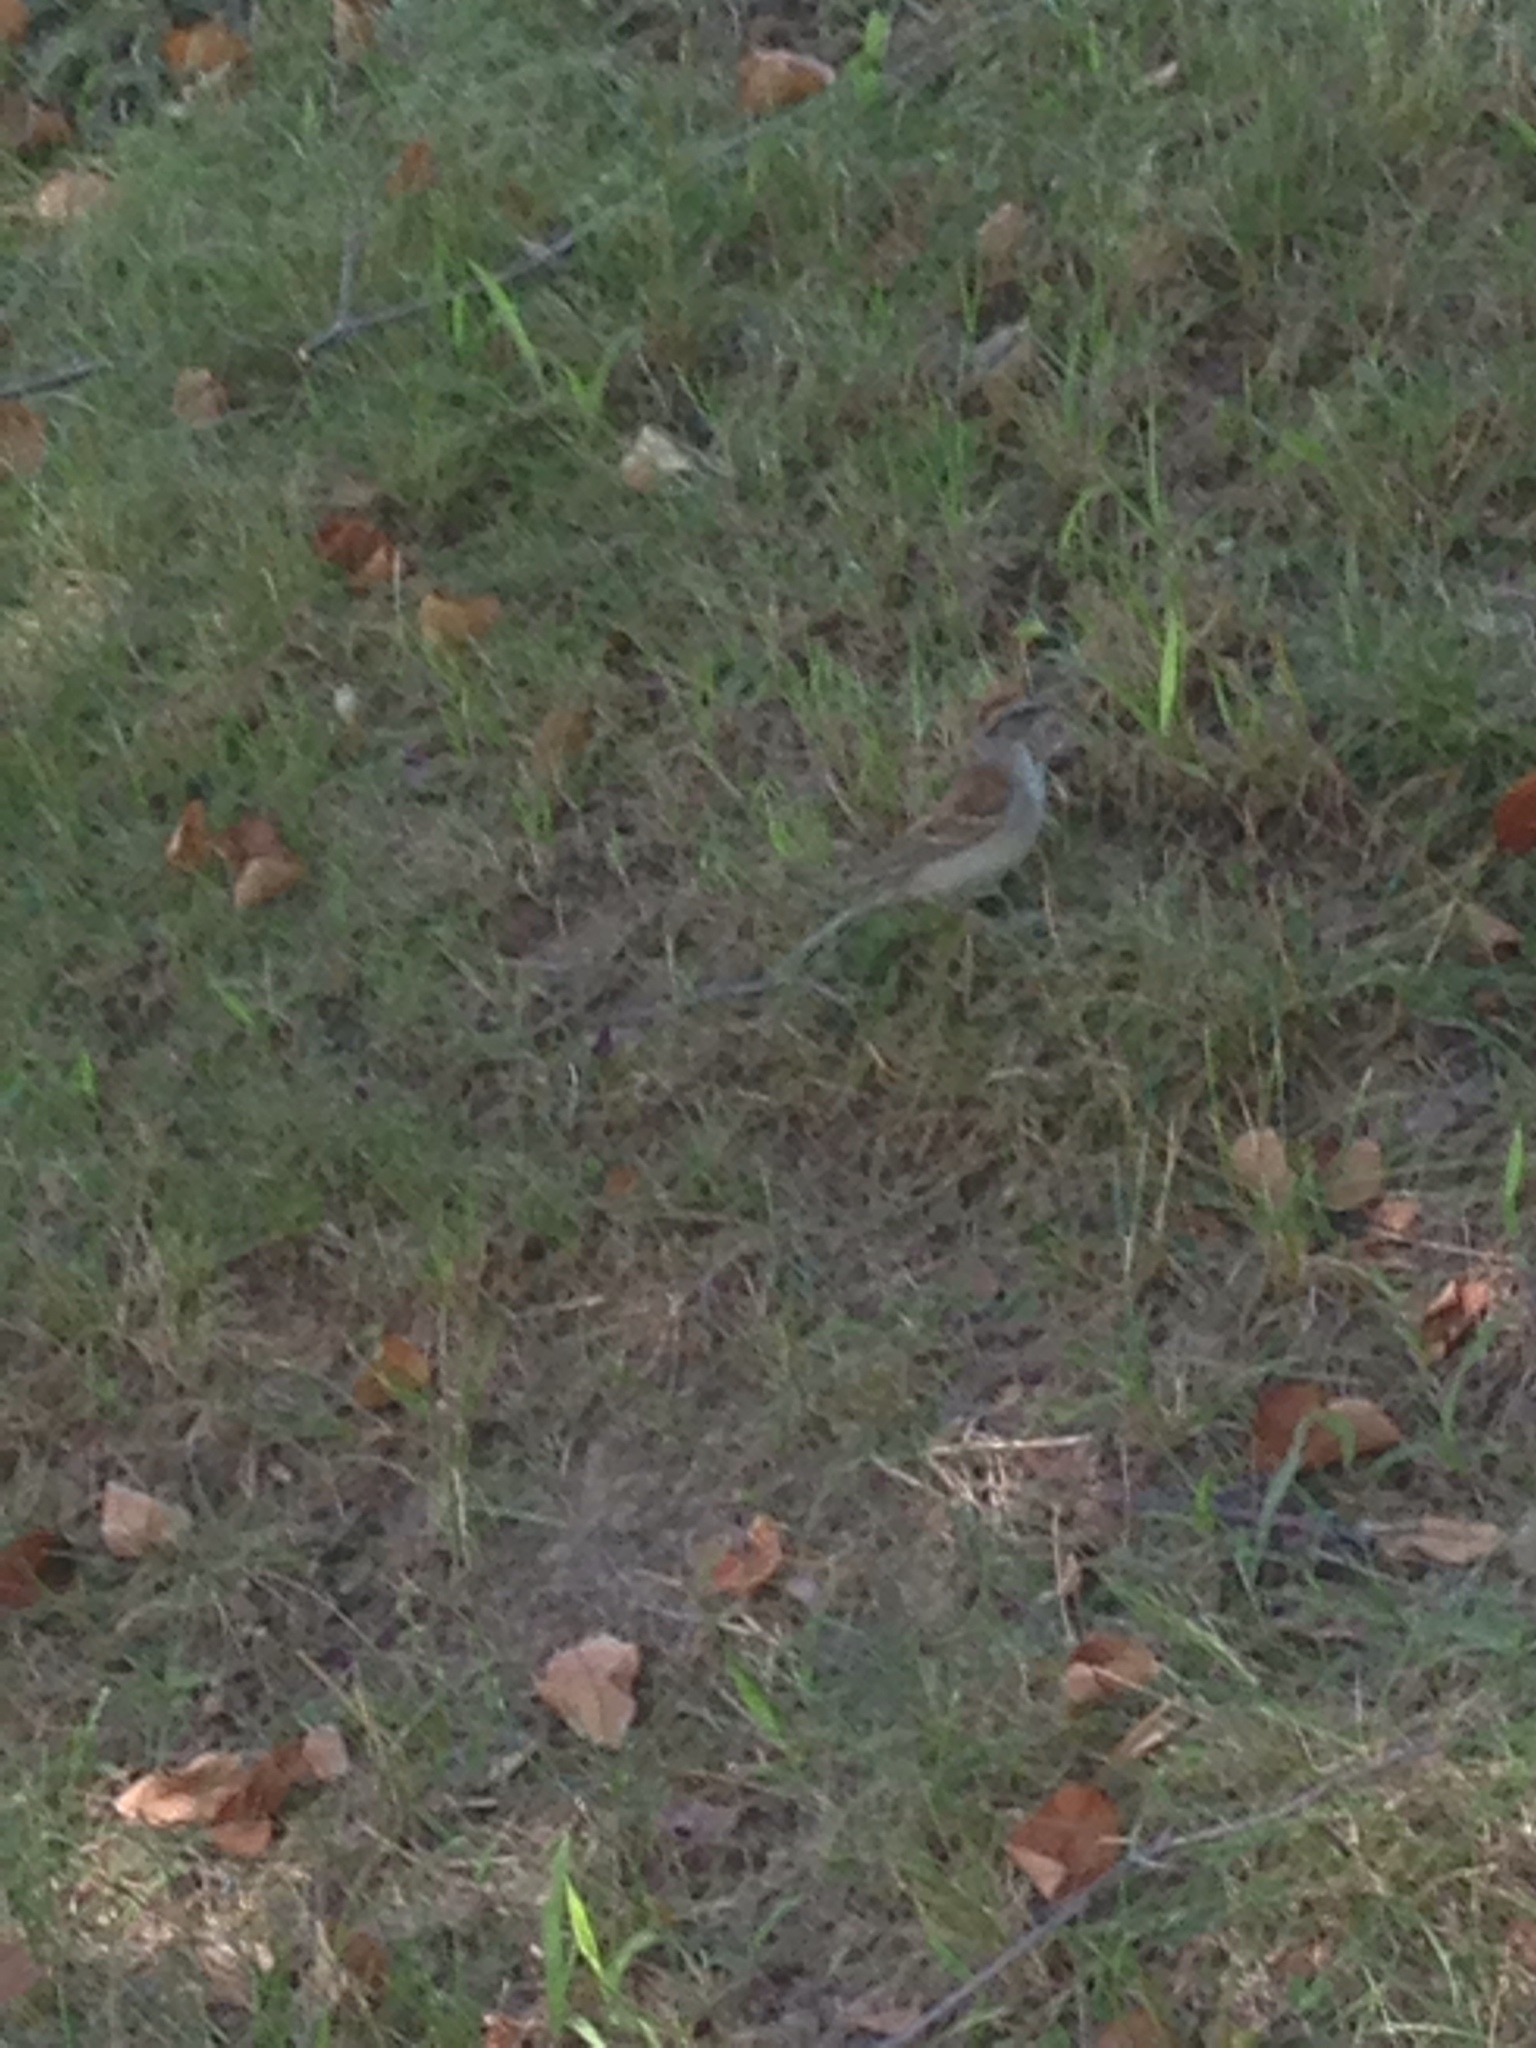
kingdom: Animalia
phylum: Chordata
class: Aves
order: Passeriformes
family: Passerellidae
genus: Spizella
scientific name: Spizella passerina
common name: Chipping sparrow
